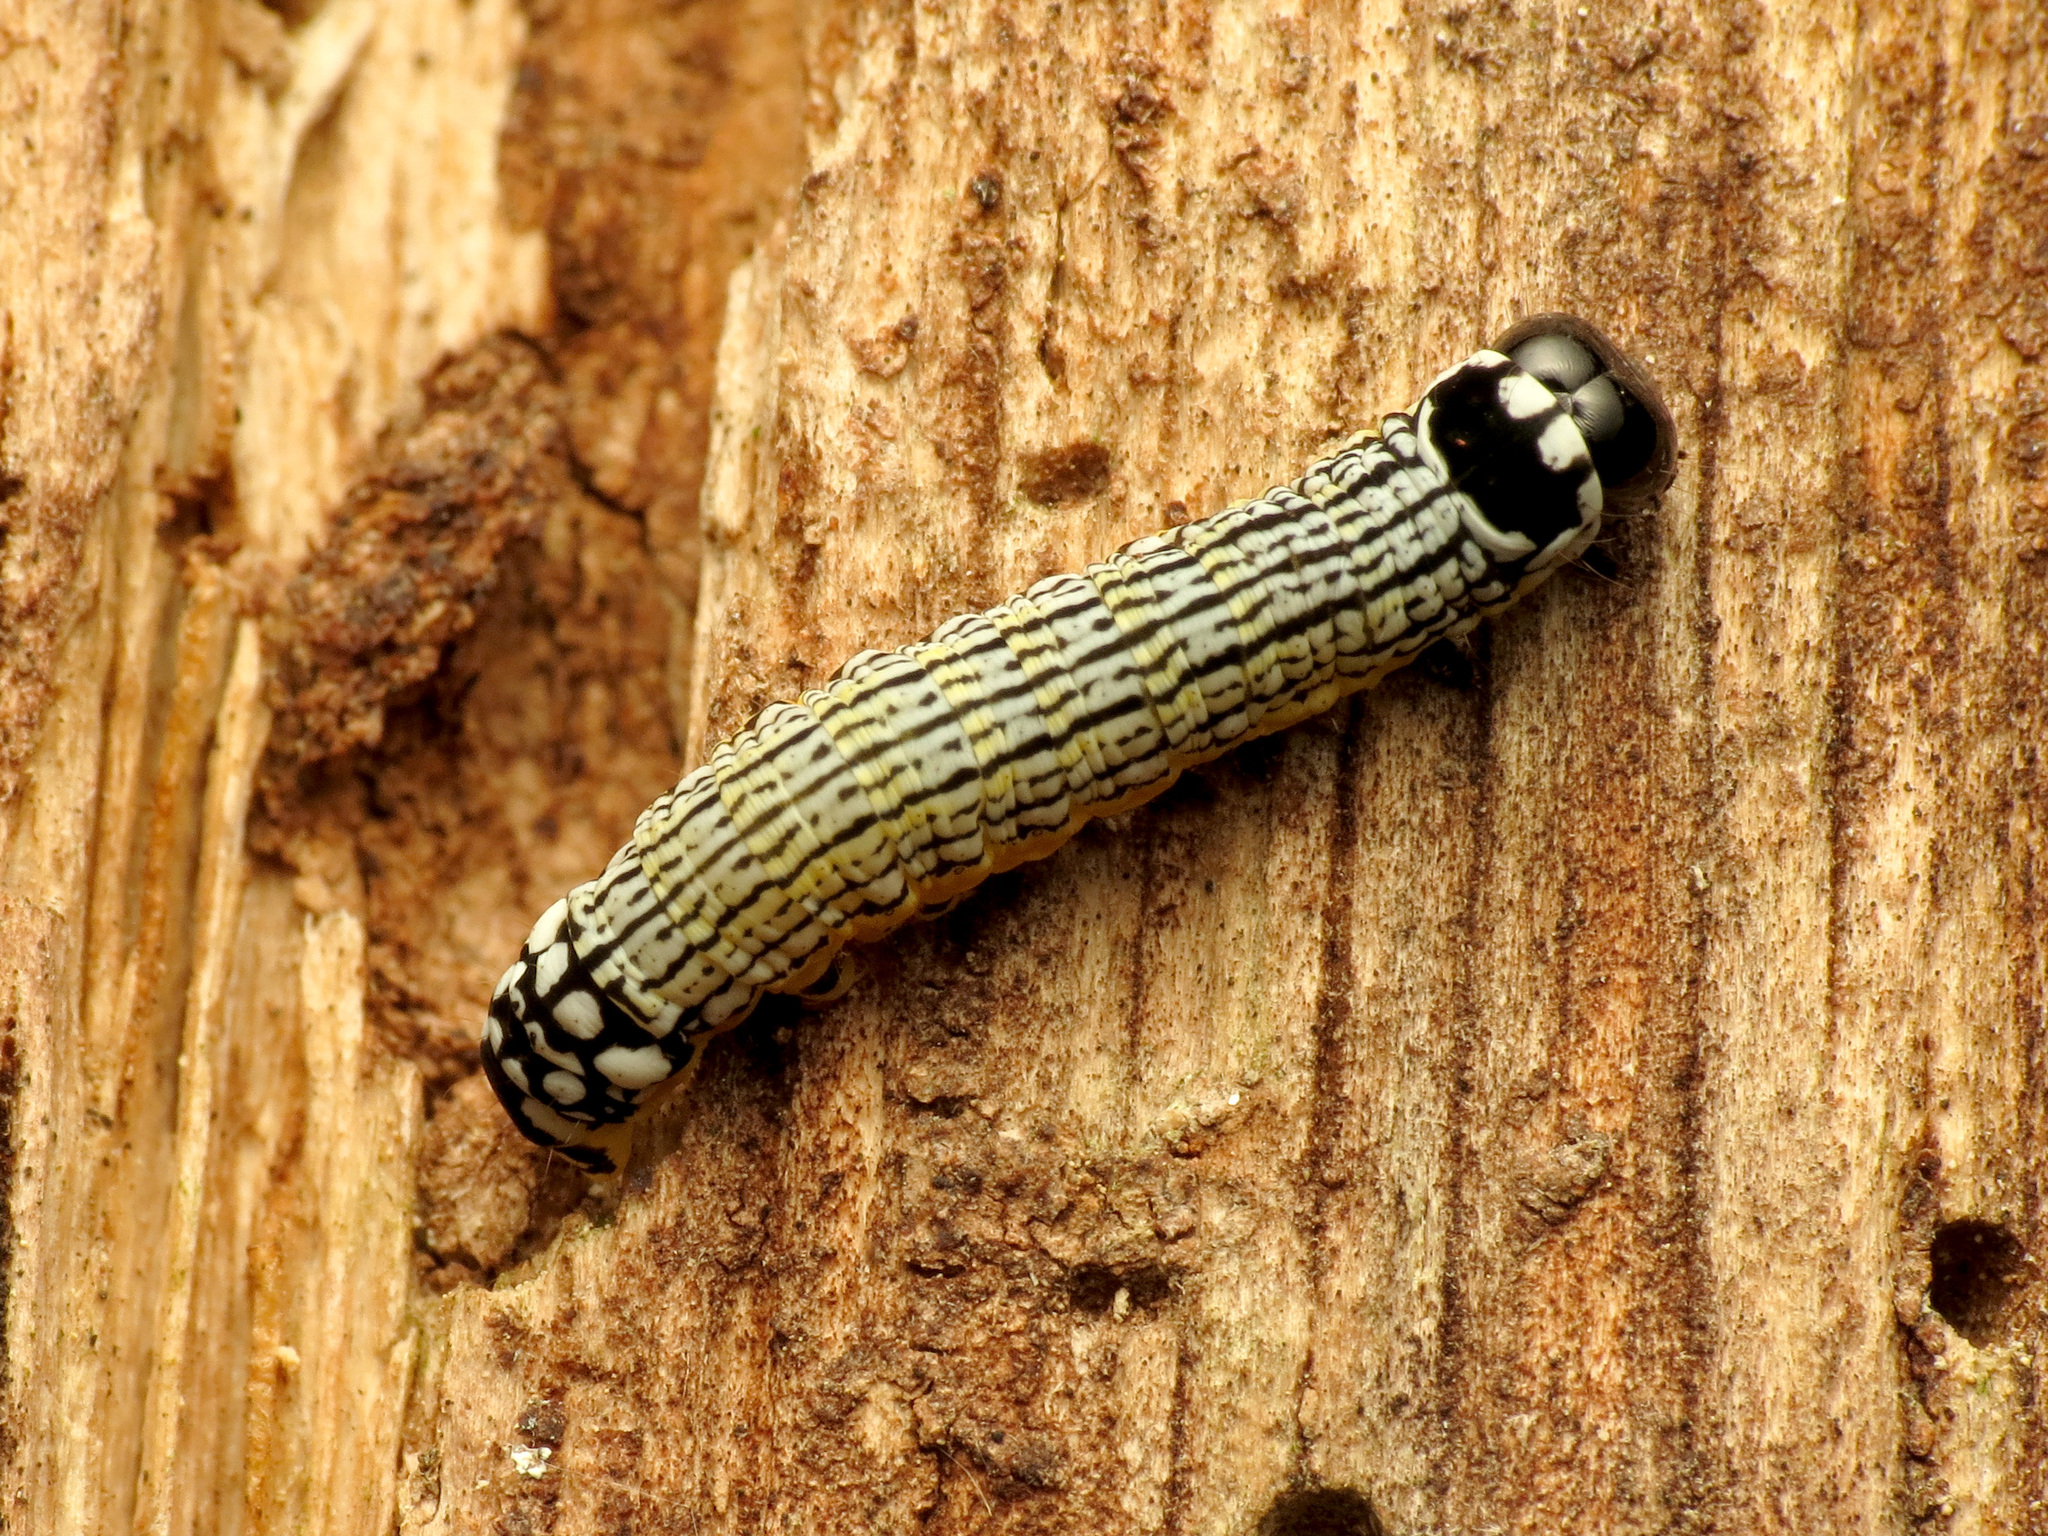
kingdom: Animalia
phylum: Arthropoda
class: Insecta
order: Lepidoptera
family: Noctuidae
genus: Phosphila
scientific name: Phosphila turbulenta
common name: Turbulent phosphila moth
